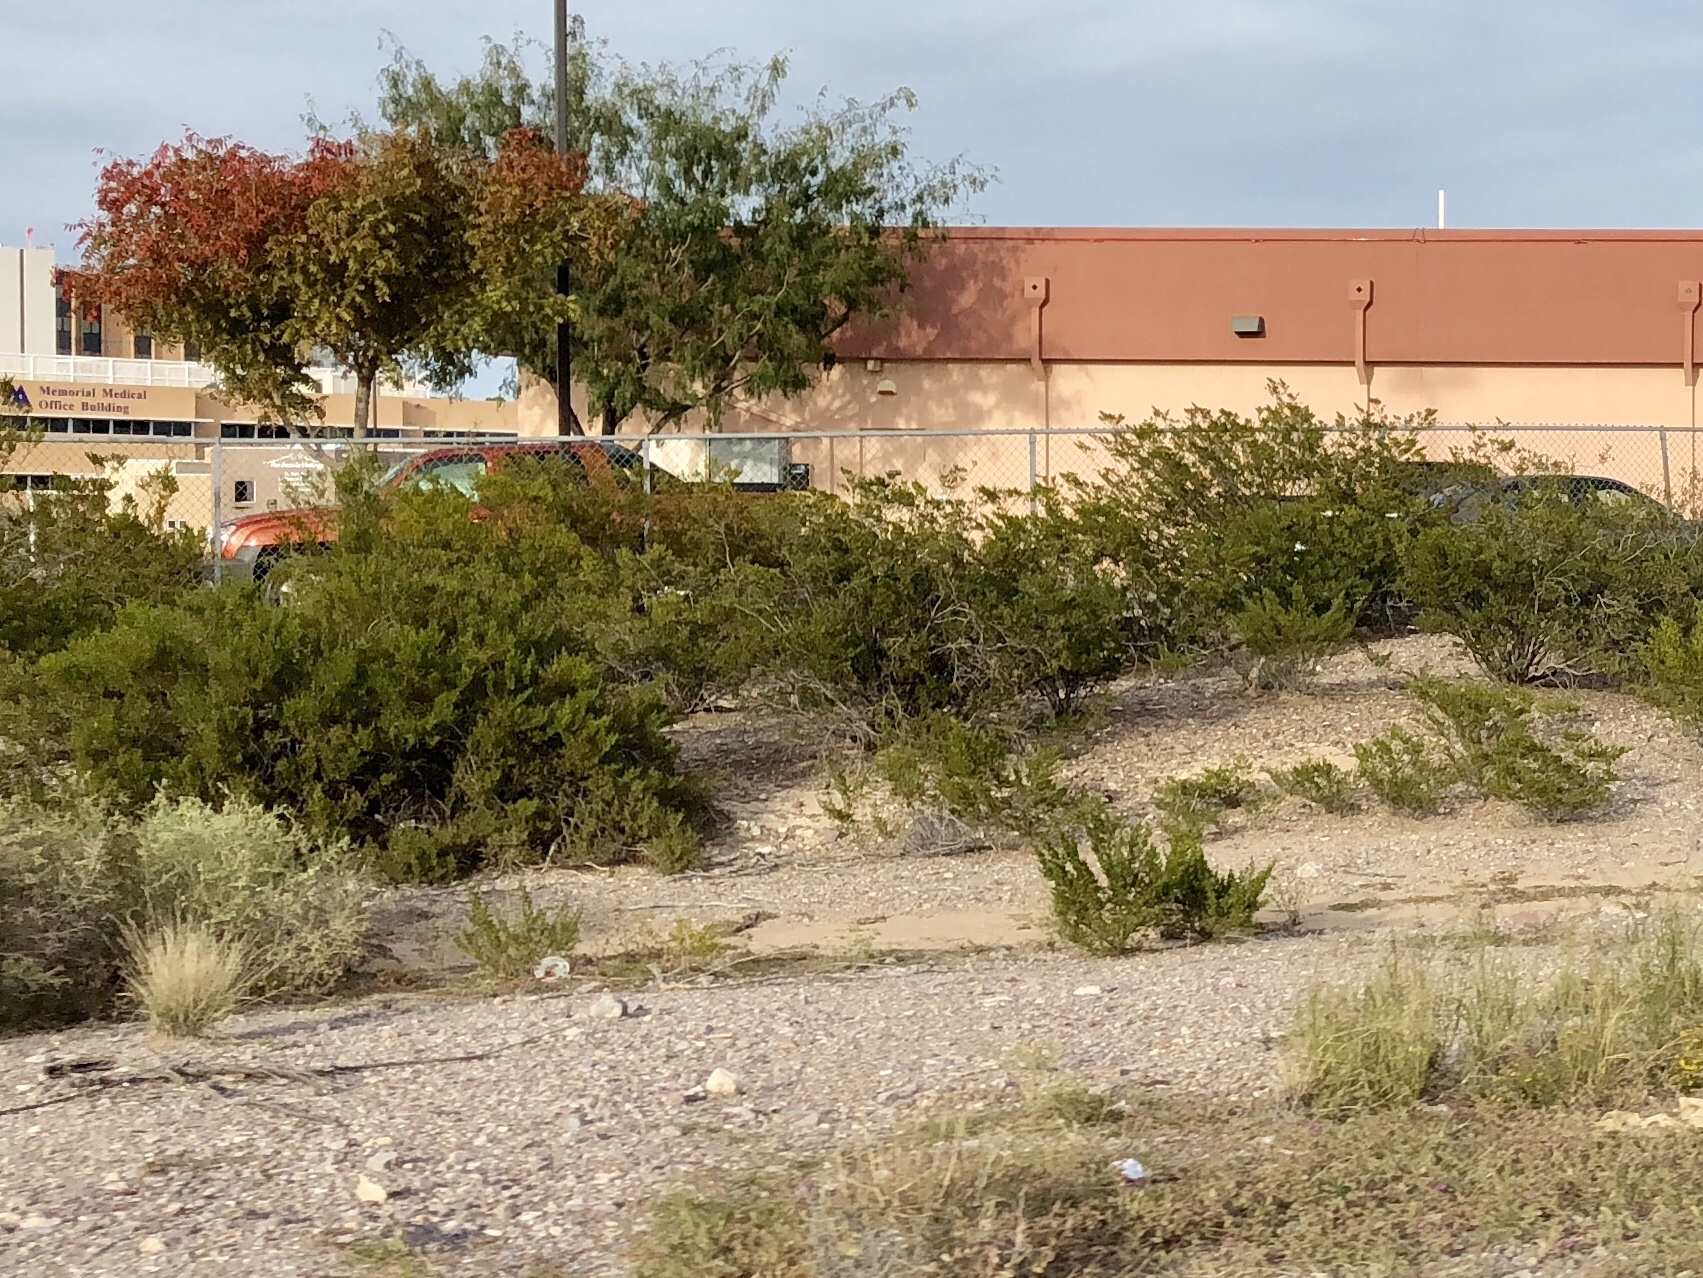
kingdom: Plantae
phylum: Tracheophyta
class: Magnoliopsida
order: Zygophyllales
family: Zygophyllaceae
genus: Larrea
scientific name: Larrea tridentata
